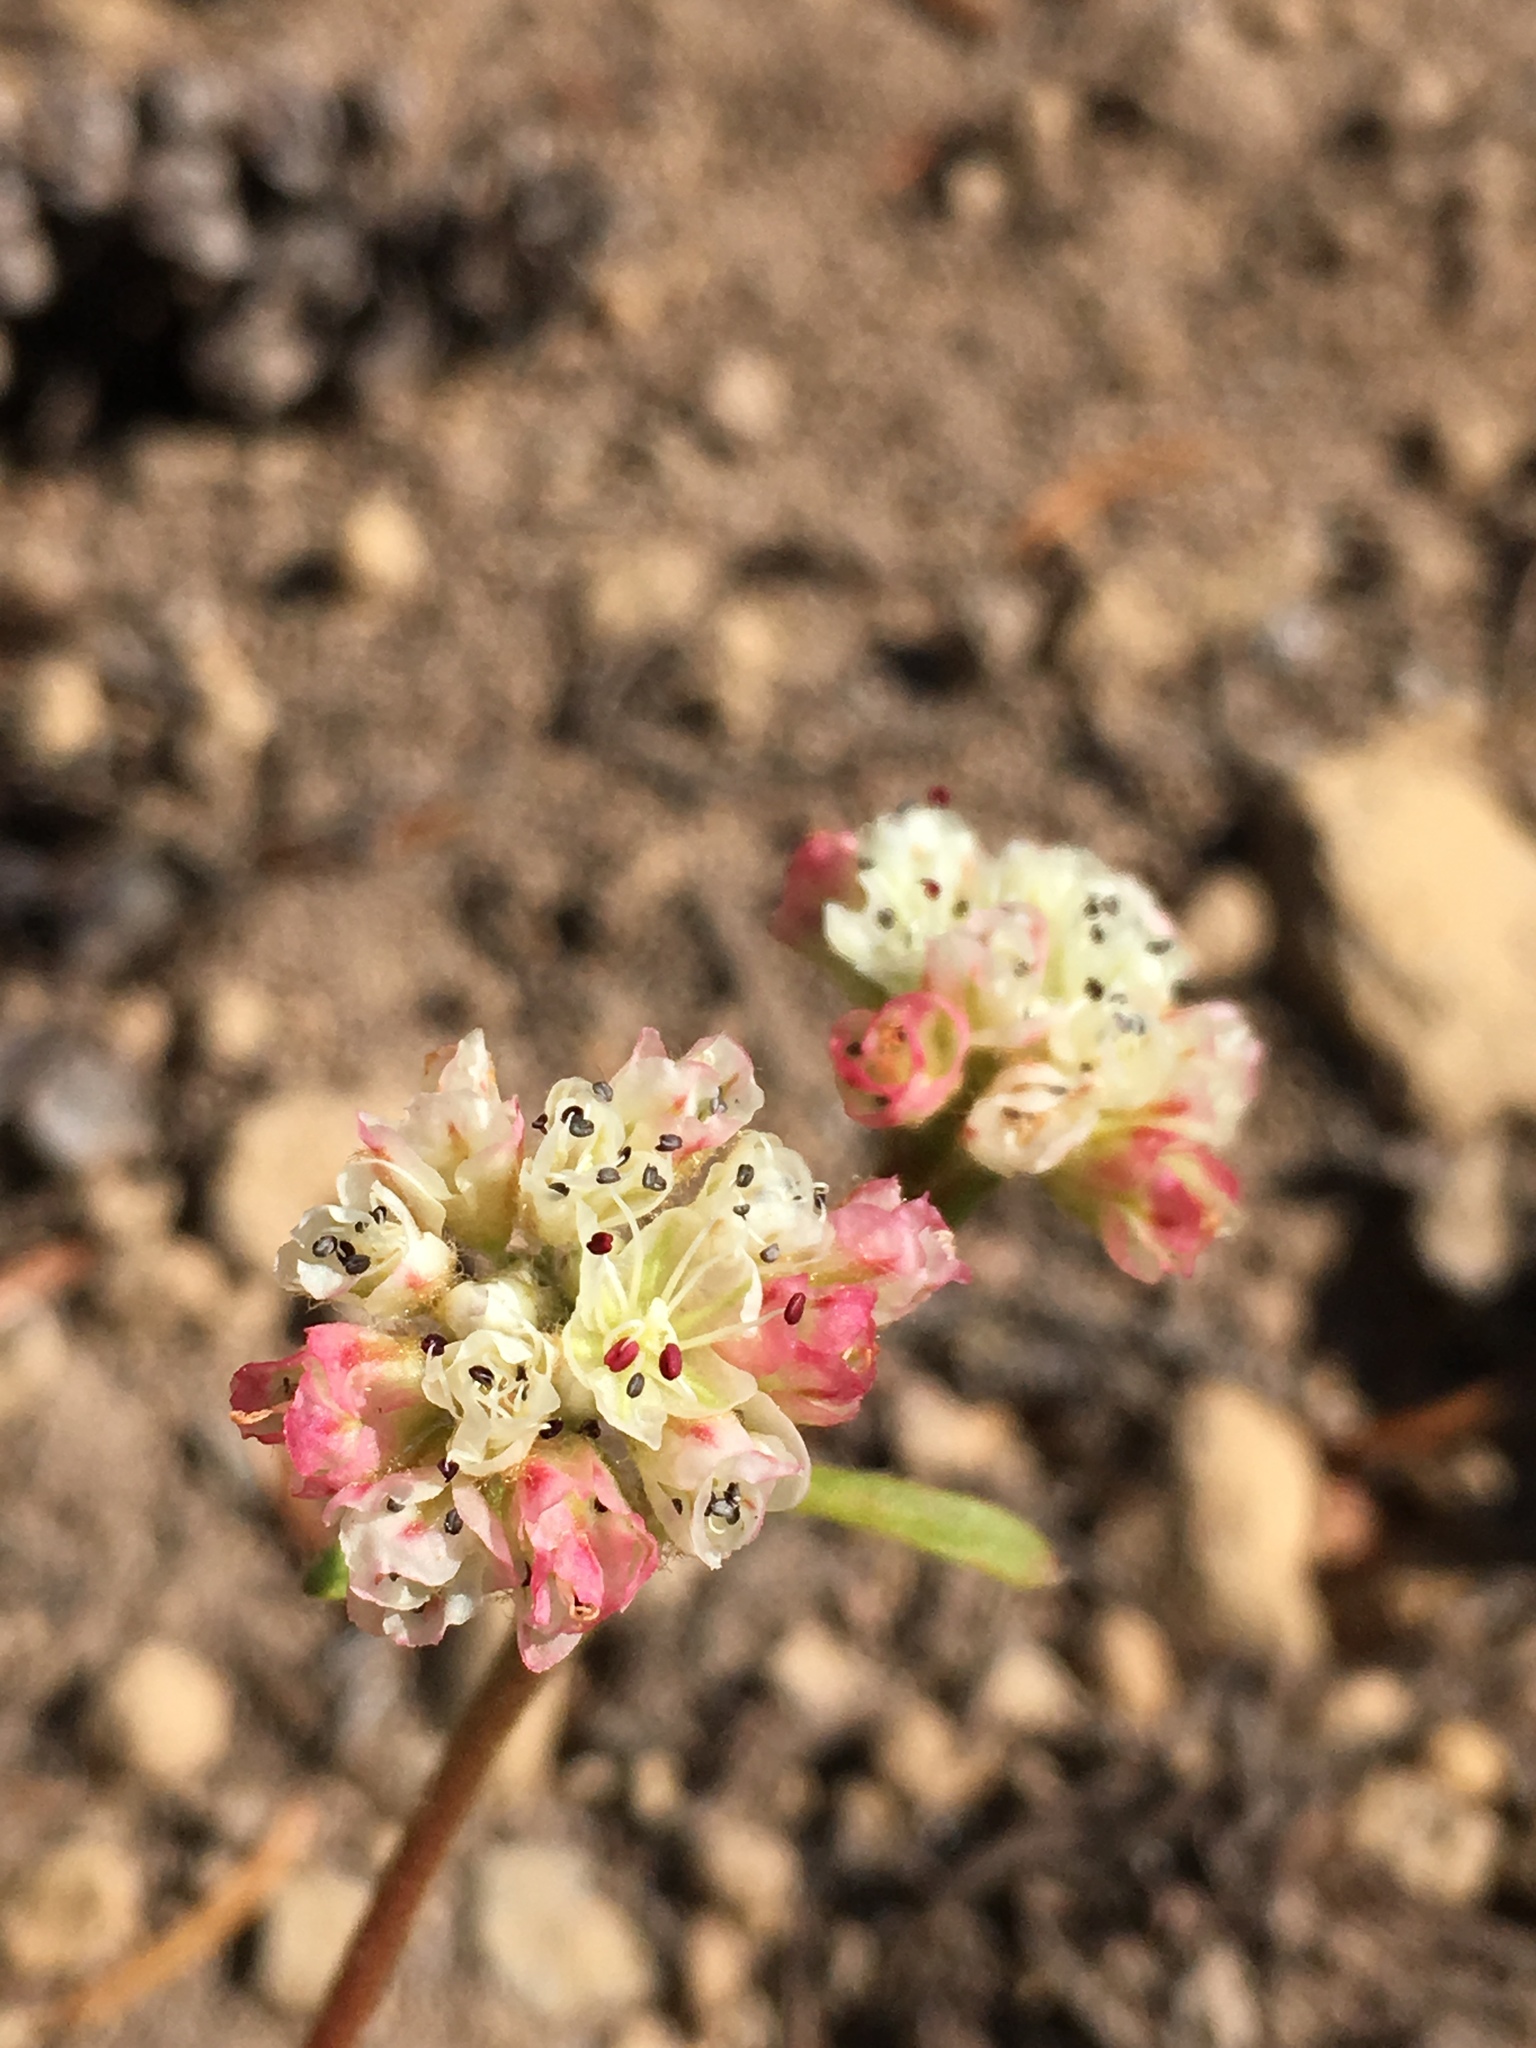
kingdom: Plantae
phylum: Tracheophyta
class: Magnoliopsida
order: Caryophyllales
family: Polygonaceae
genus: Eriogonum
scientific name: Eriogonum pyrolifolium
